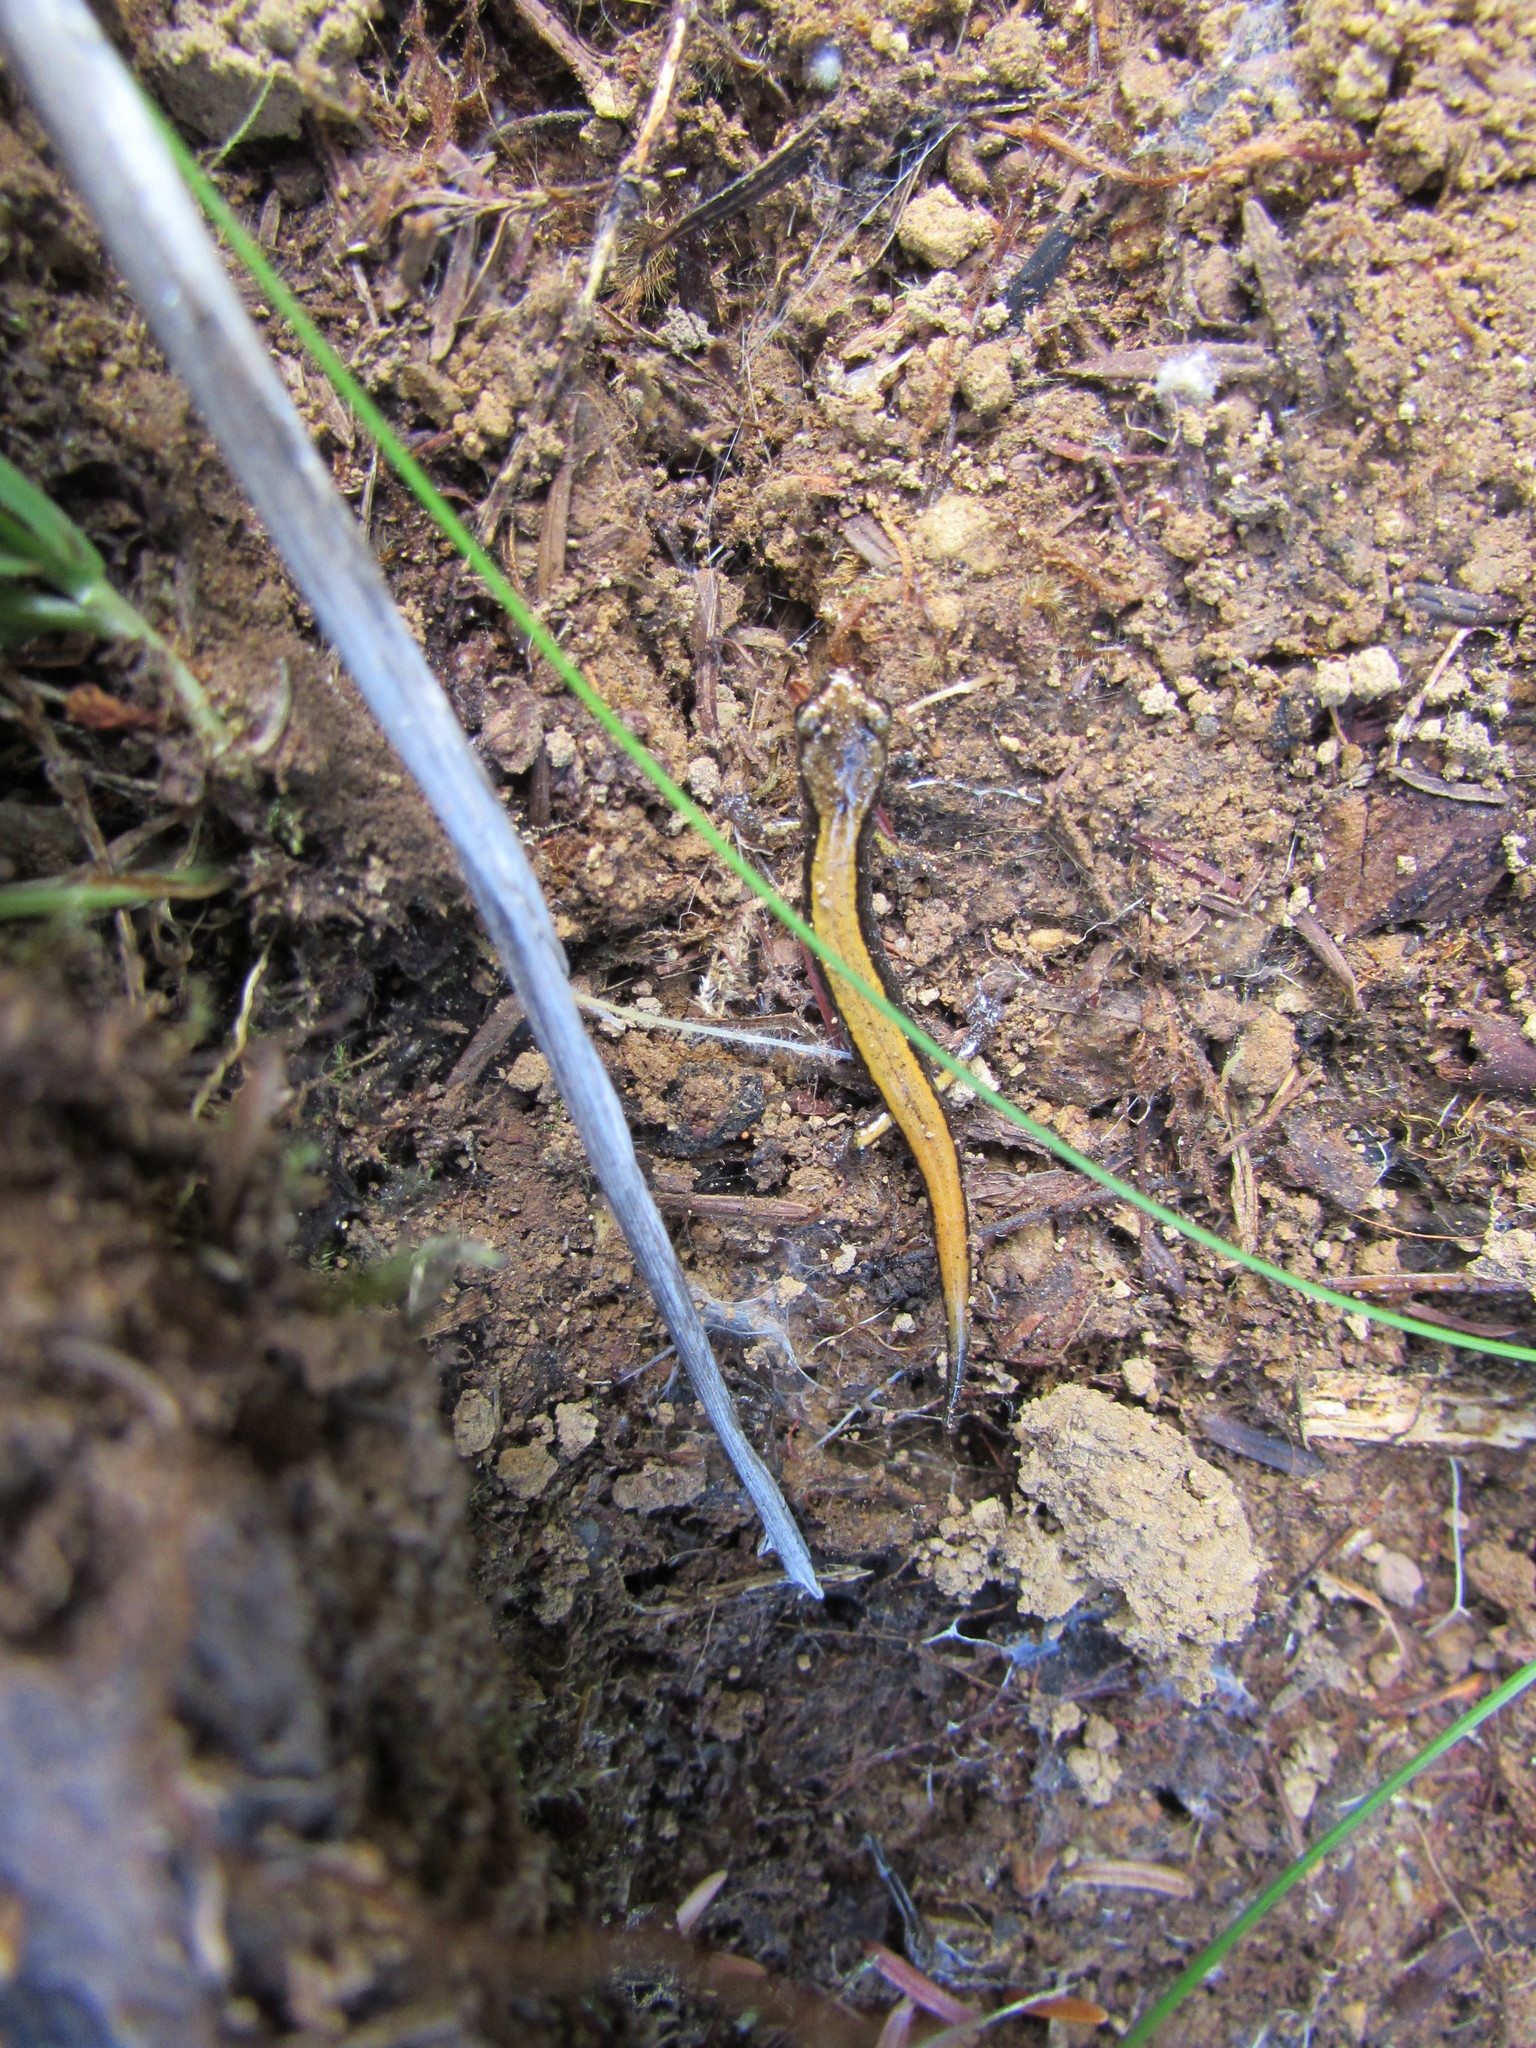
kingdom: Animalia
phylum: Chordata
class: Amphibia
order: Caudata
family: Plethodontidae
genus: Plethodon
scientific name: Plethodon vehiculum
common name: Western red-backed salamander
